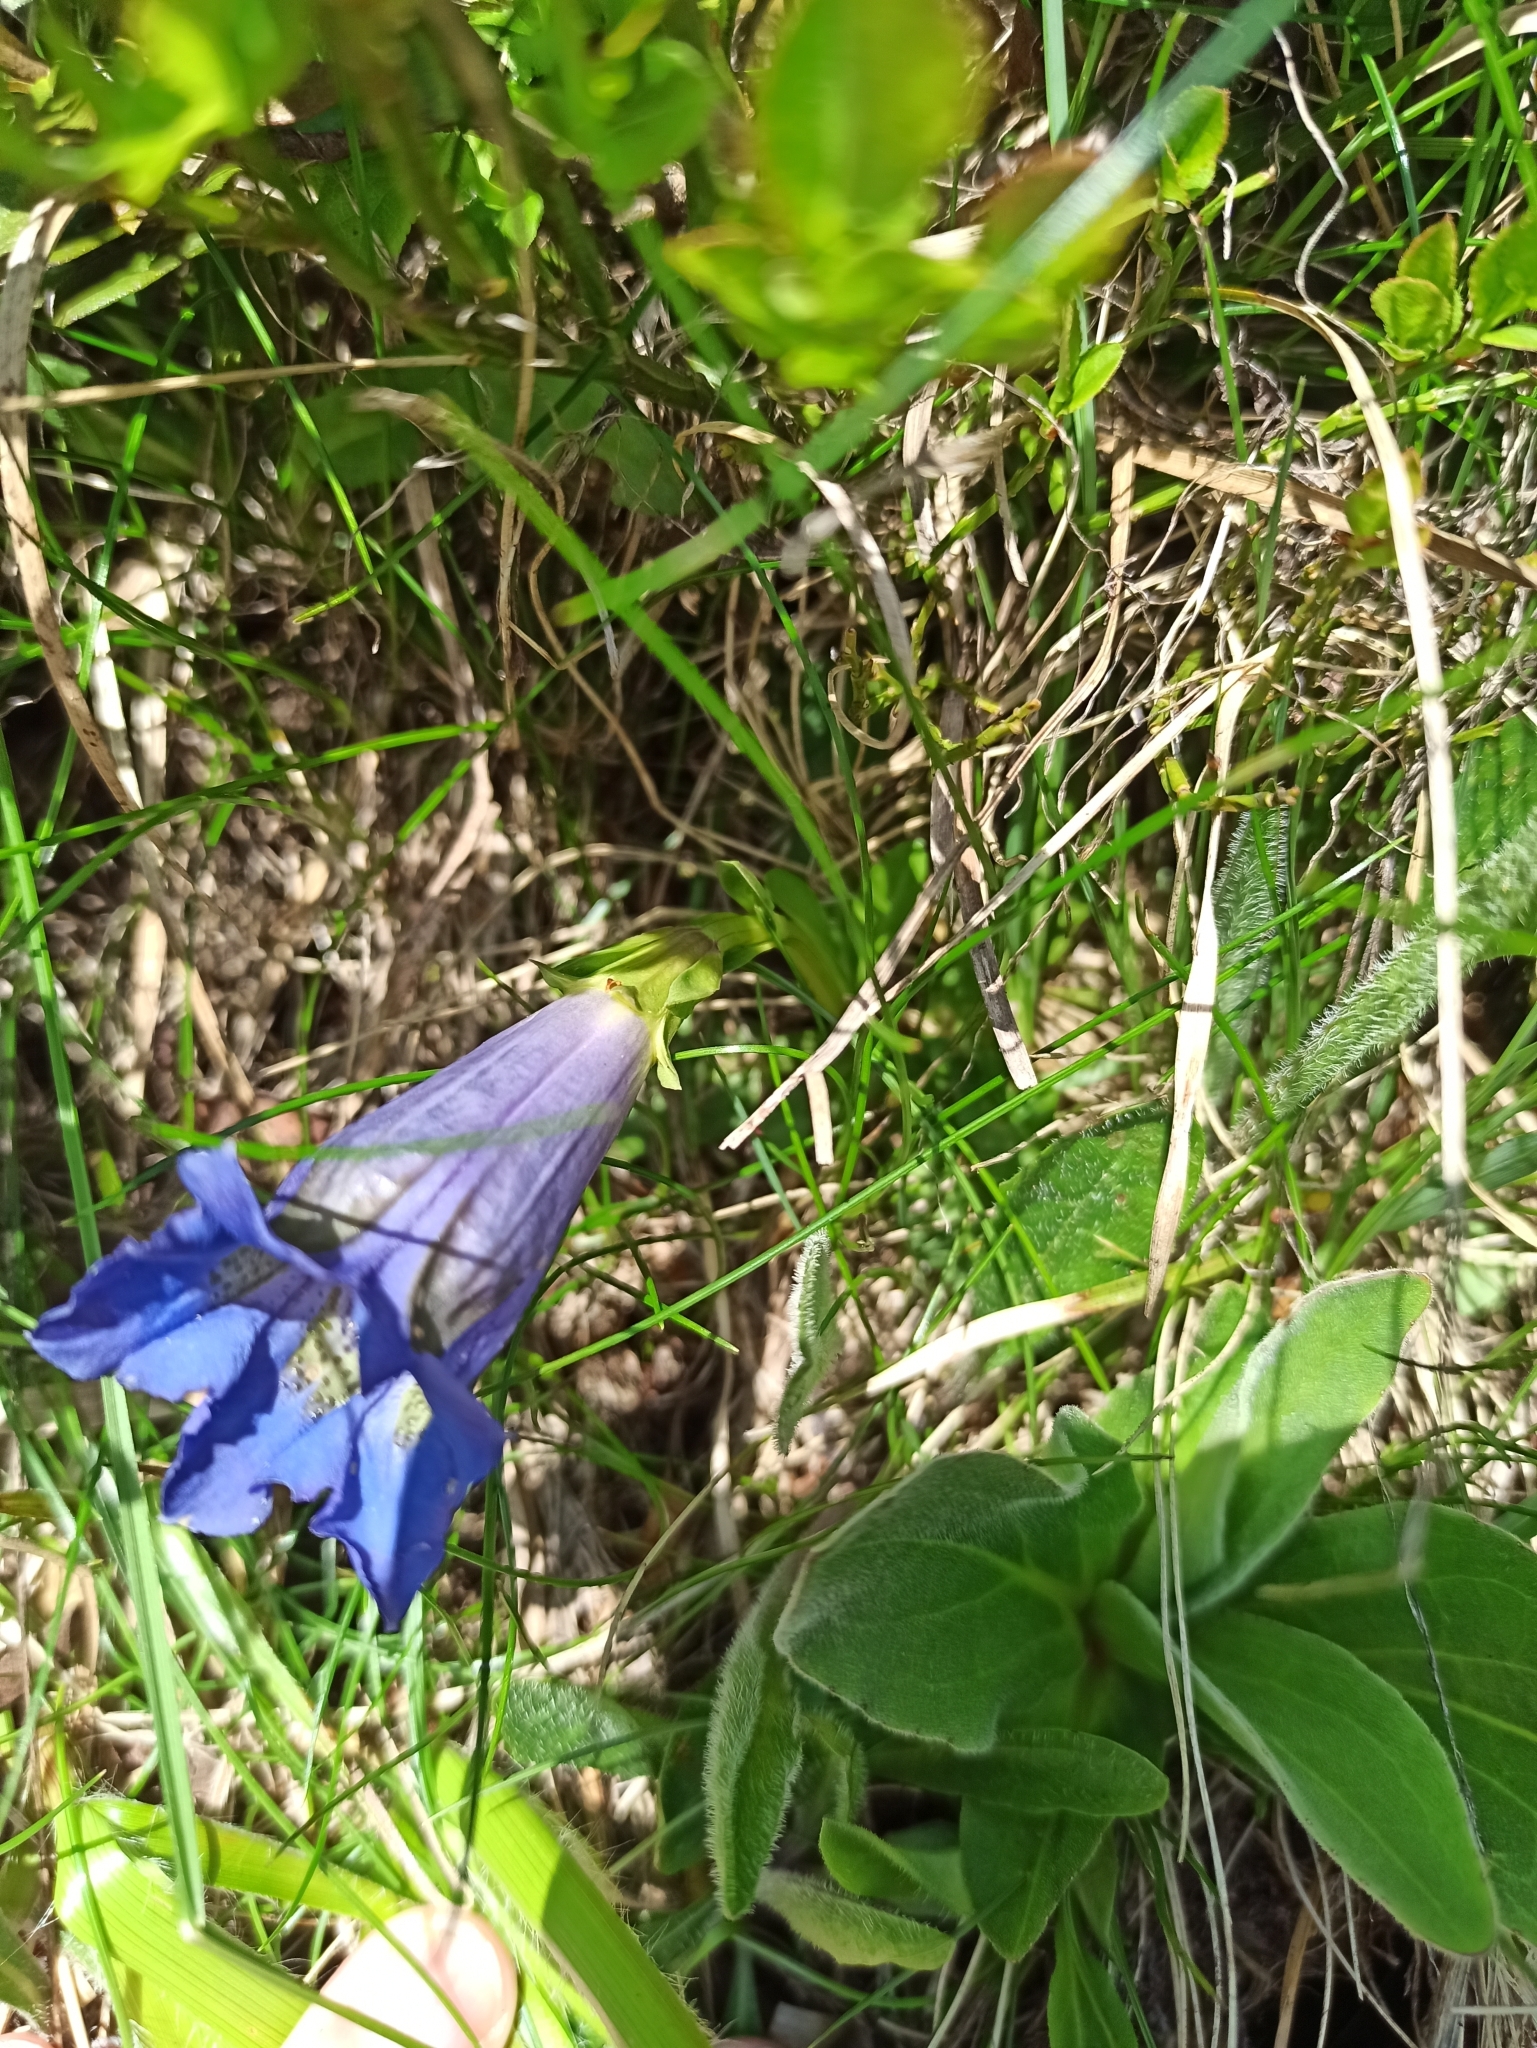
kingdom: Plantae
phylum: Tracheophyta
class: Magnoliopsida
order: Gentianales
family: Gentianaceae
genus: Gentiana
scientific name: Gentiana acaulis
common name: Trumpet gentian
